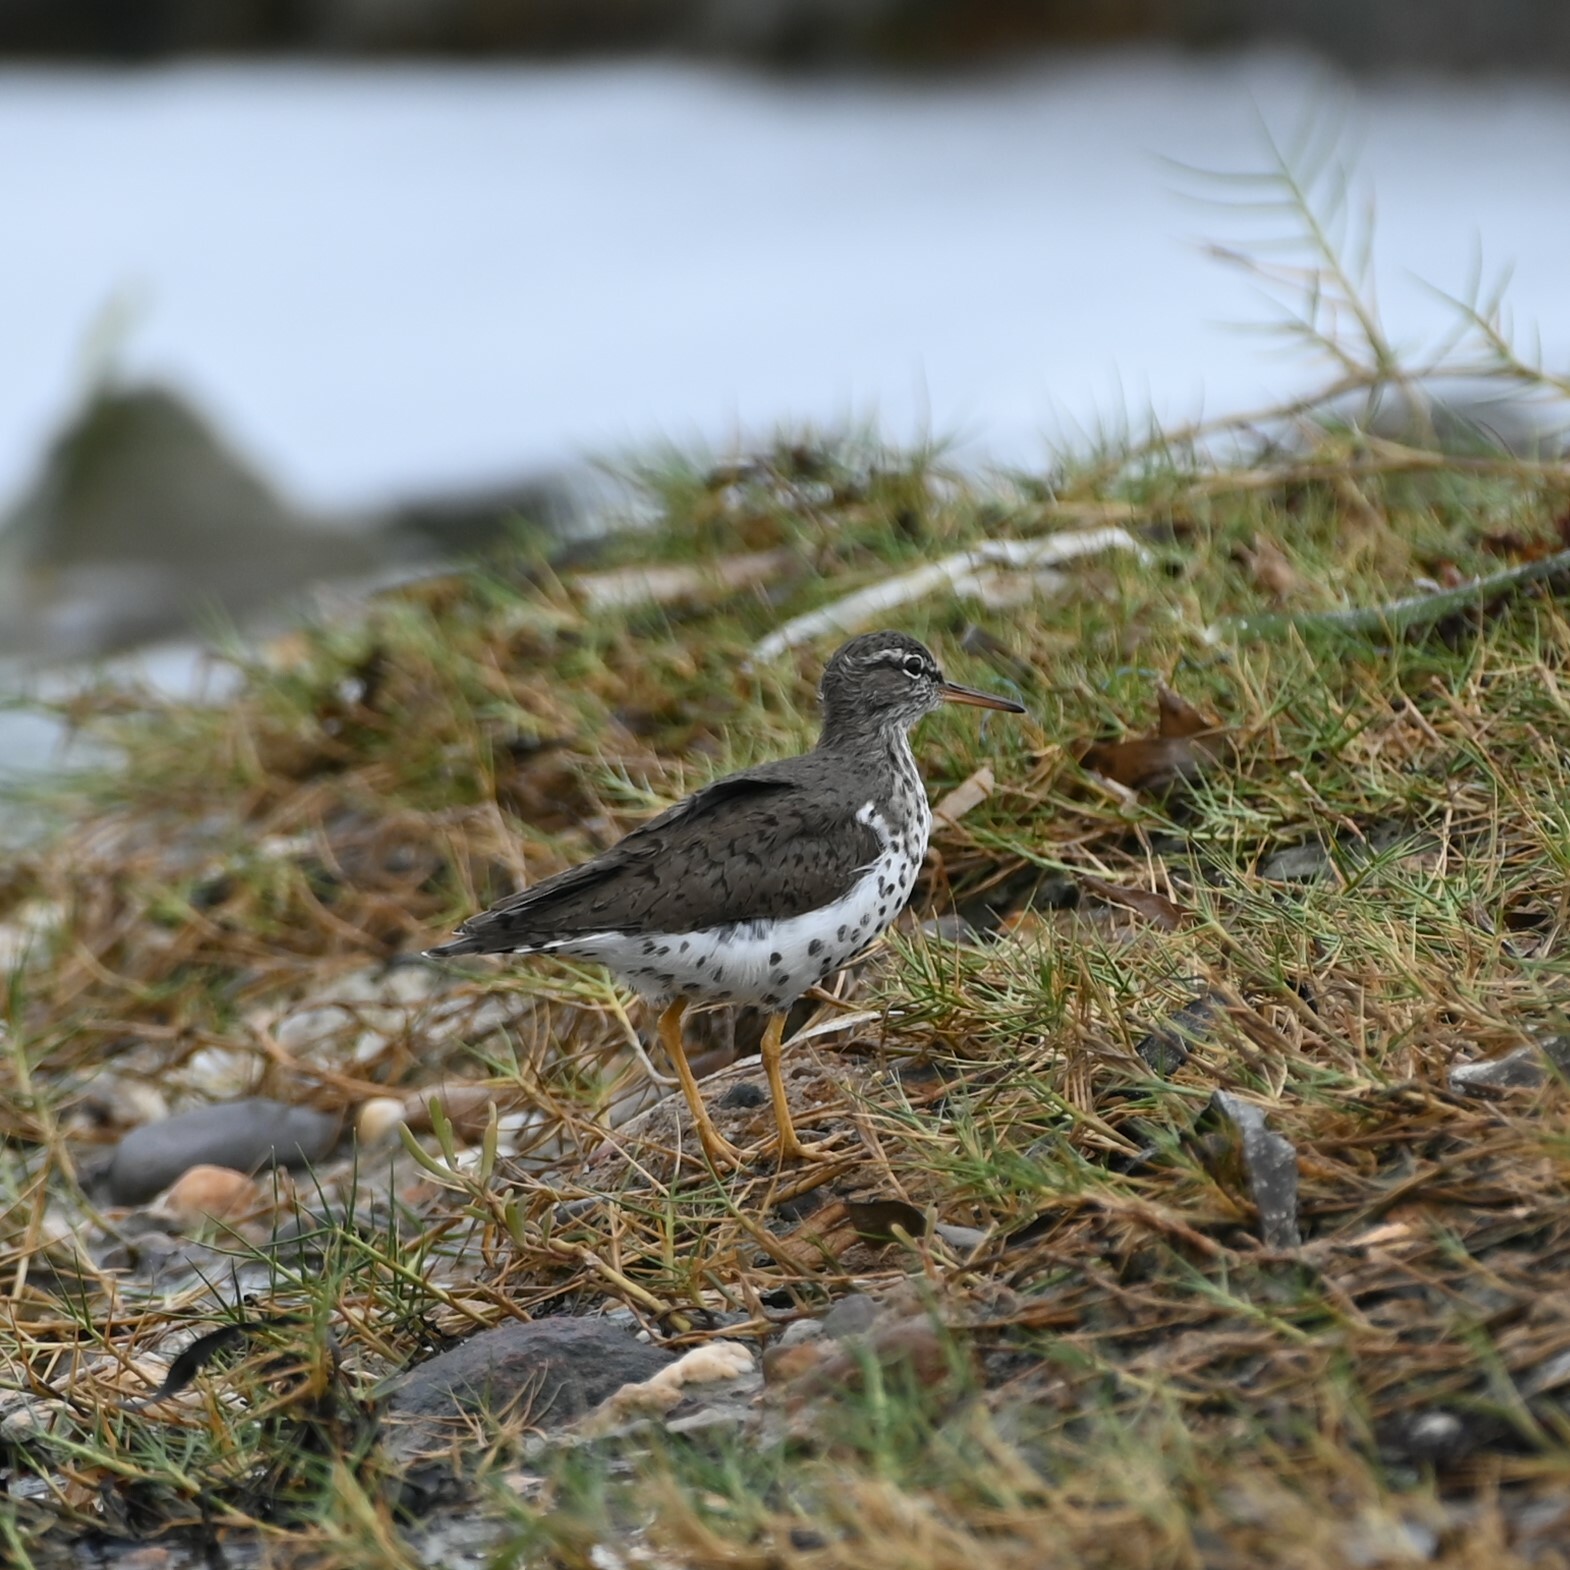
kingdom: Animalia
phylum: Chordata
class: Aves
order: Charadriiformes
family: Scolopacidae
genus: Actitis
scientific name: Actitis macularius
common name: Spotted sandpiper
